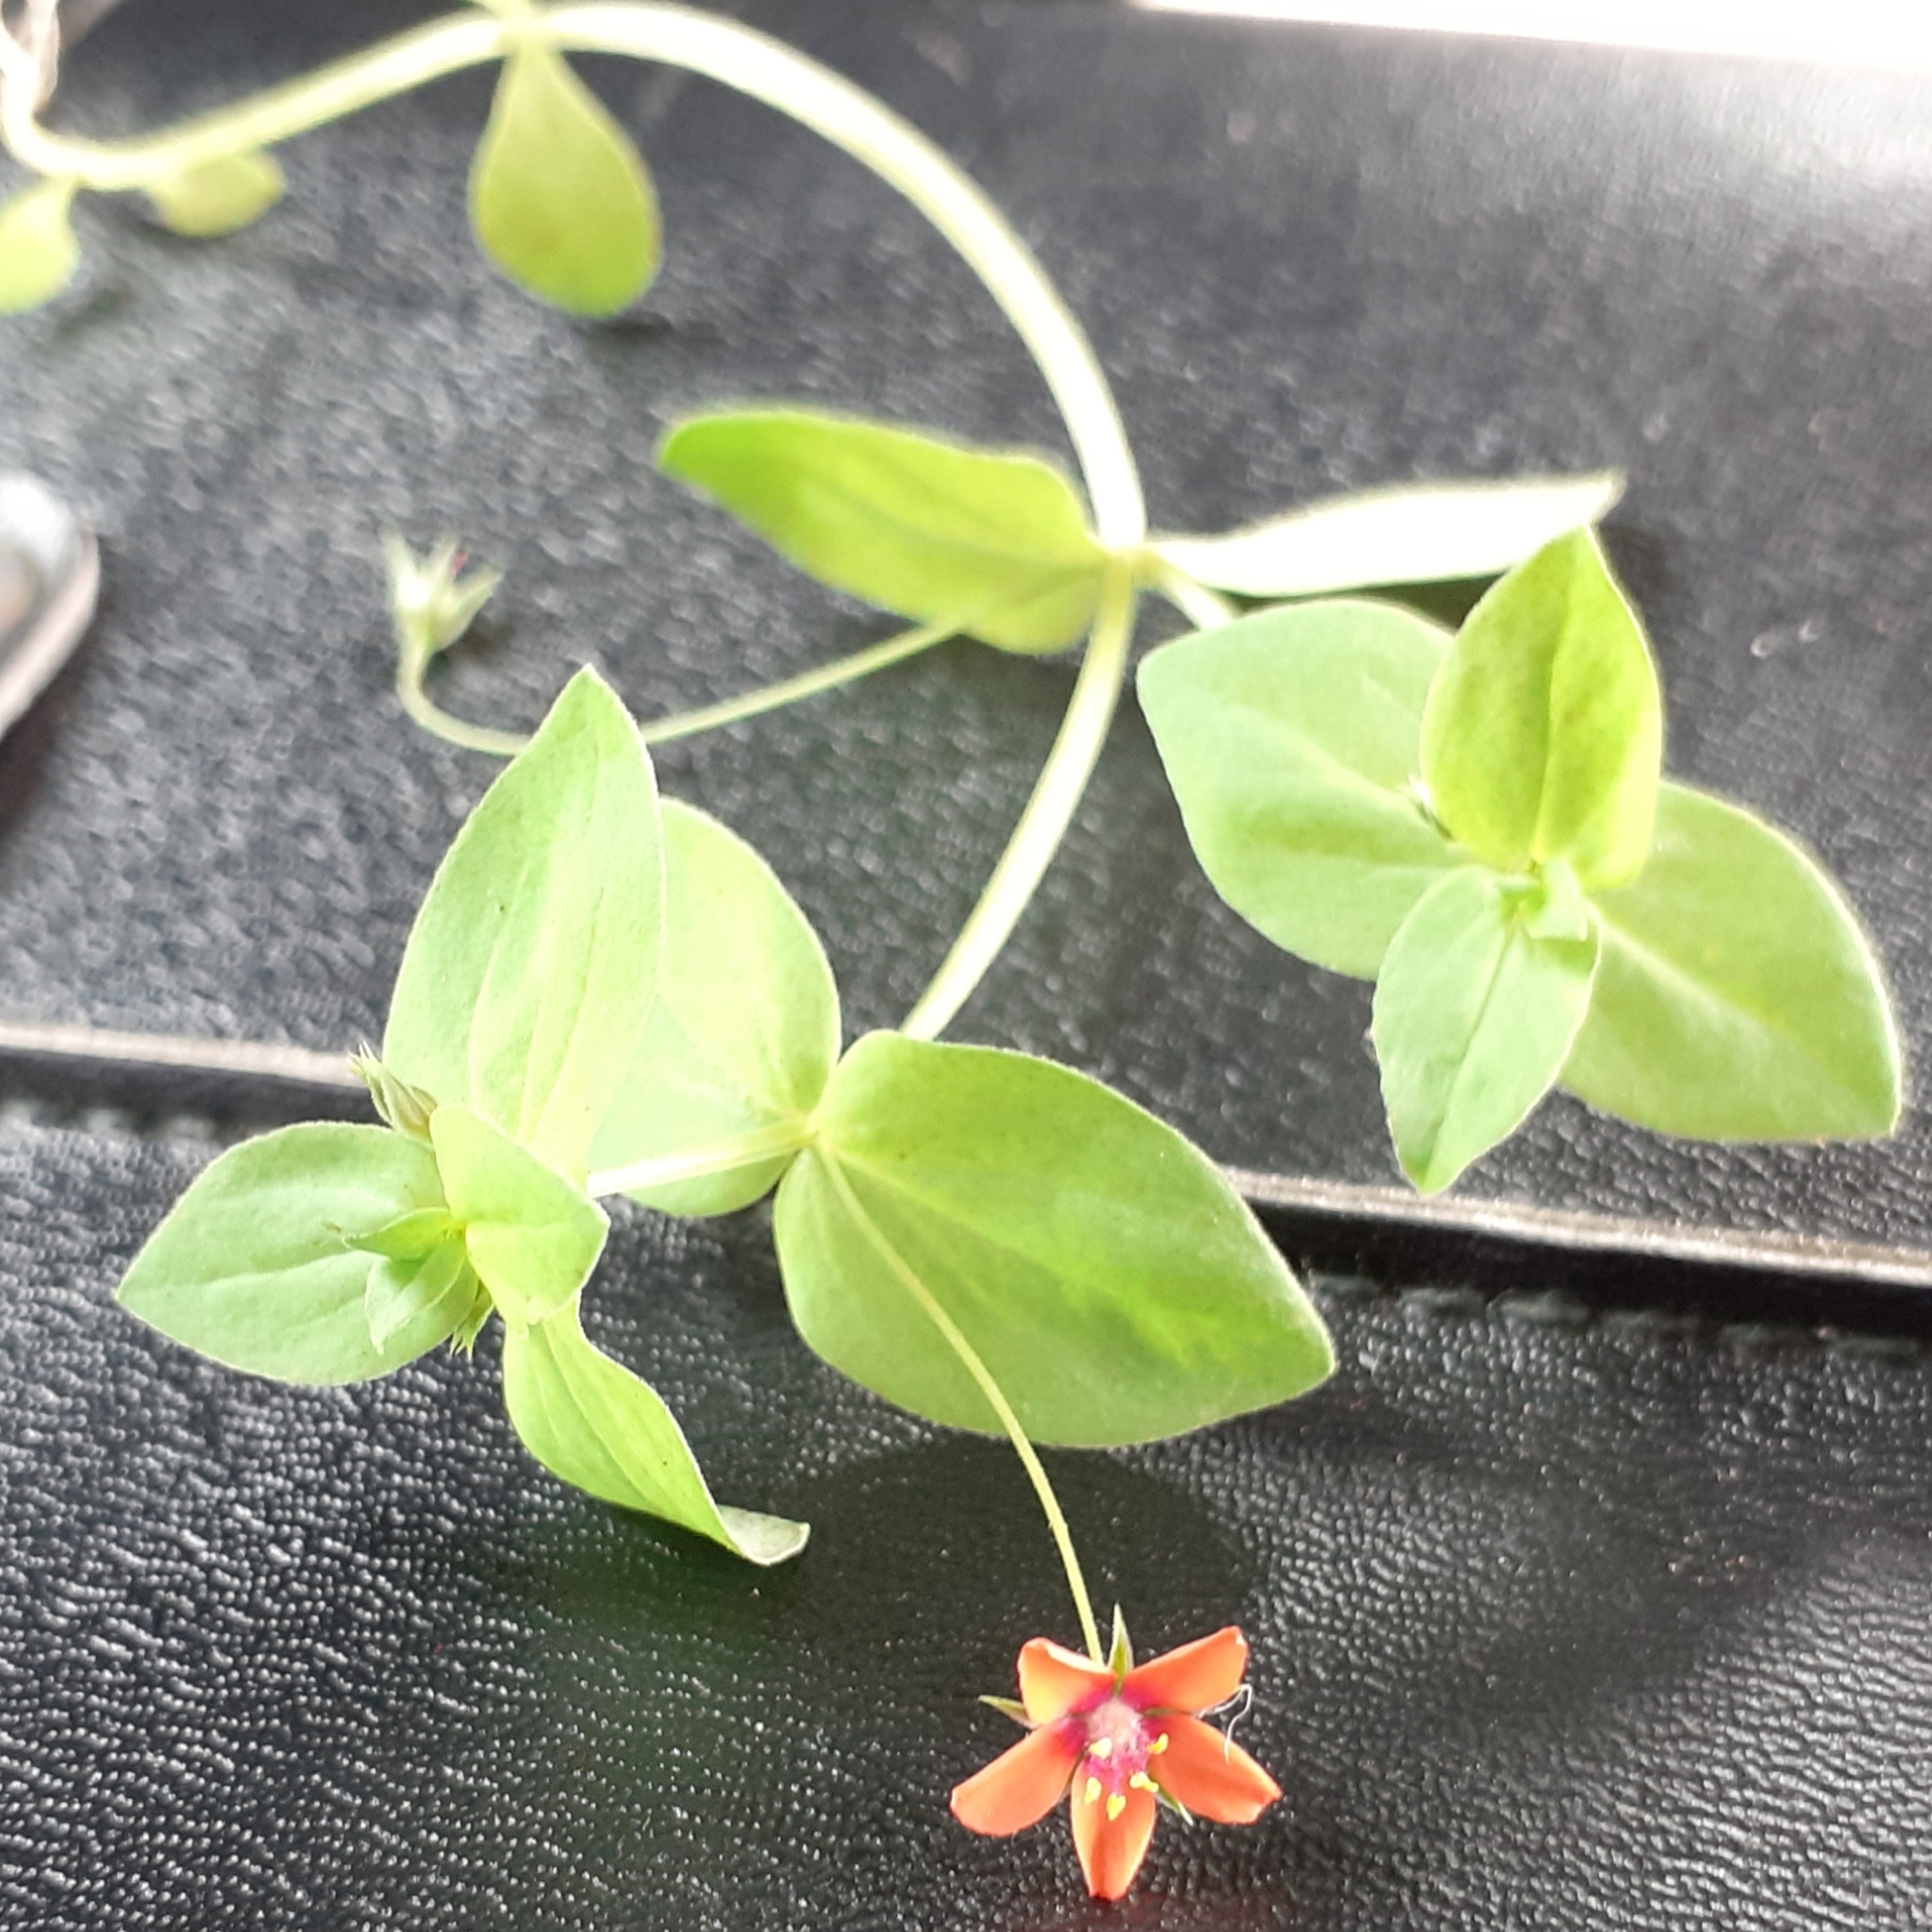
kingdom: Plantae
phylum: Tracheophyta
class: Magnoliopsida
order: Ericales
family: Primulaceae
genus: Lysimachia
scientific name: Lysimachia arvensis
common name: Scarlet pimpernel
